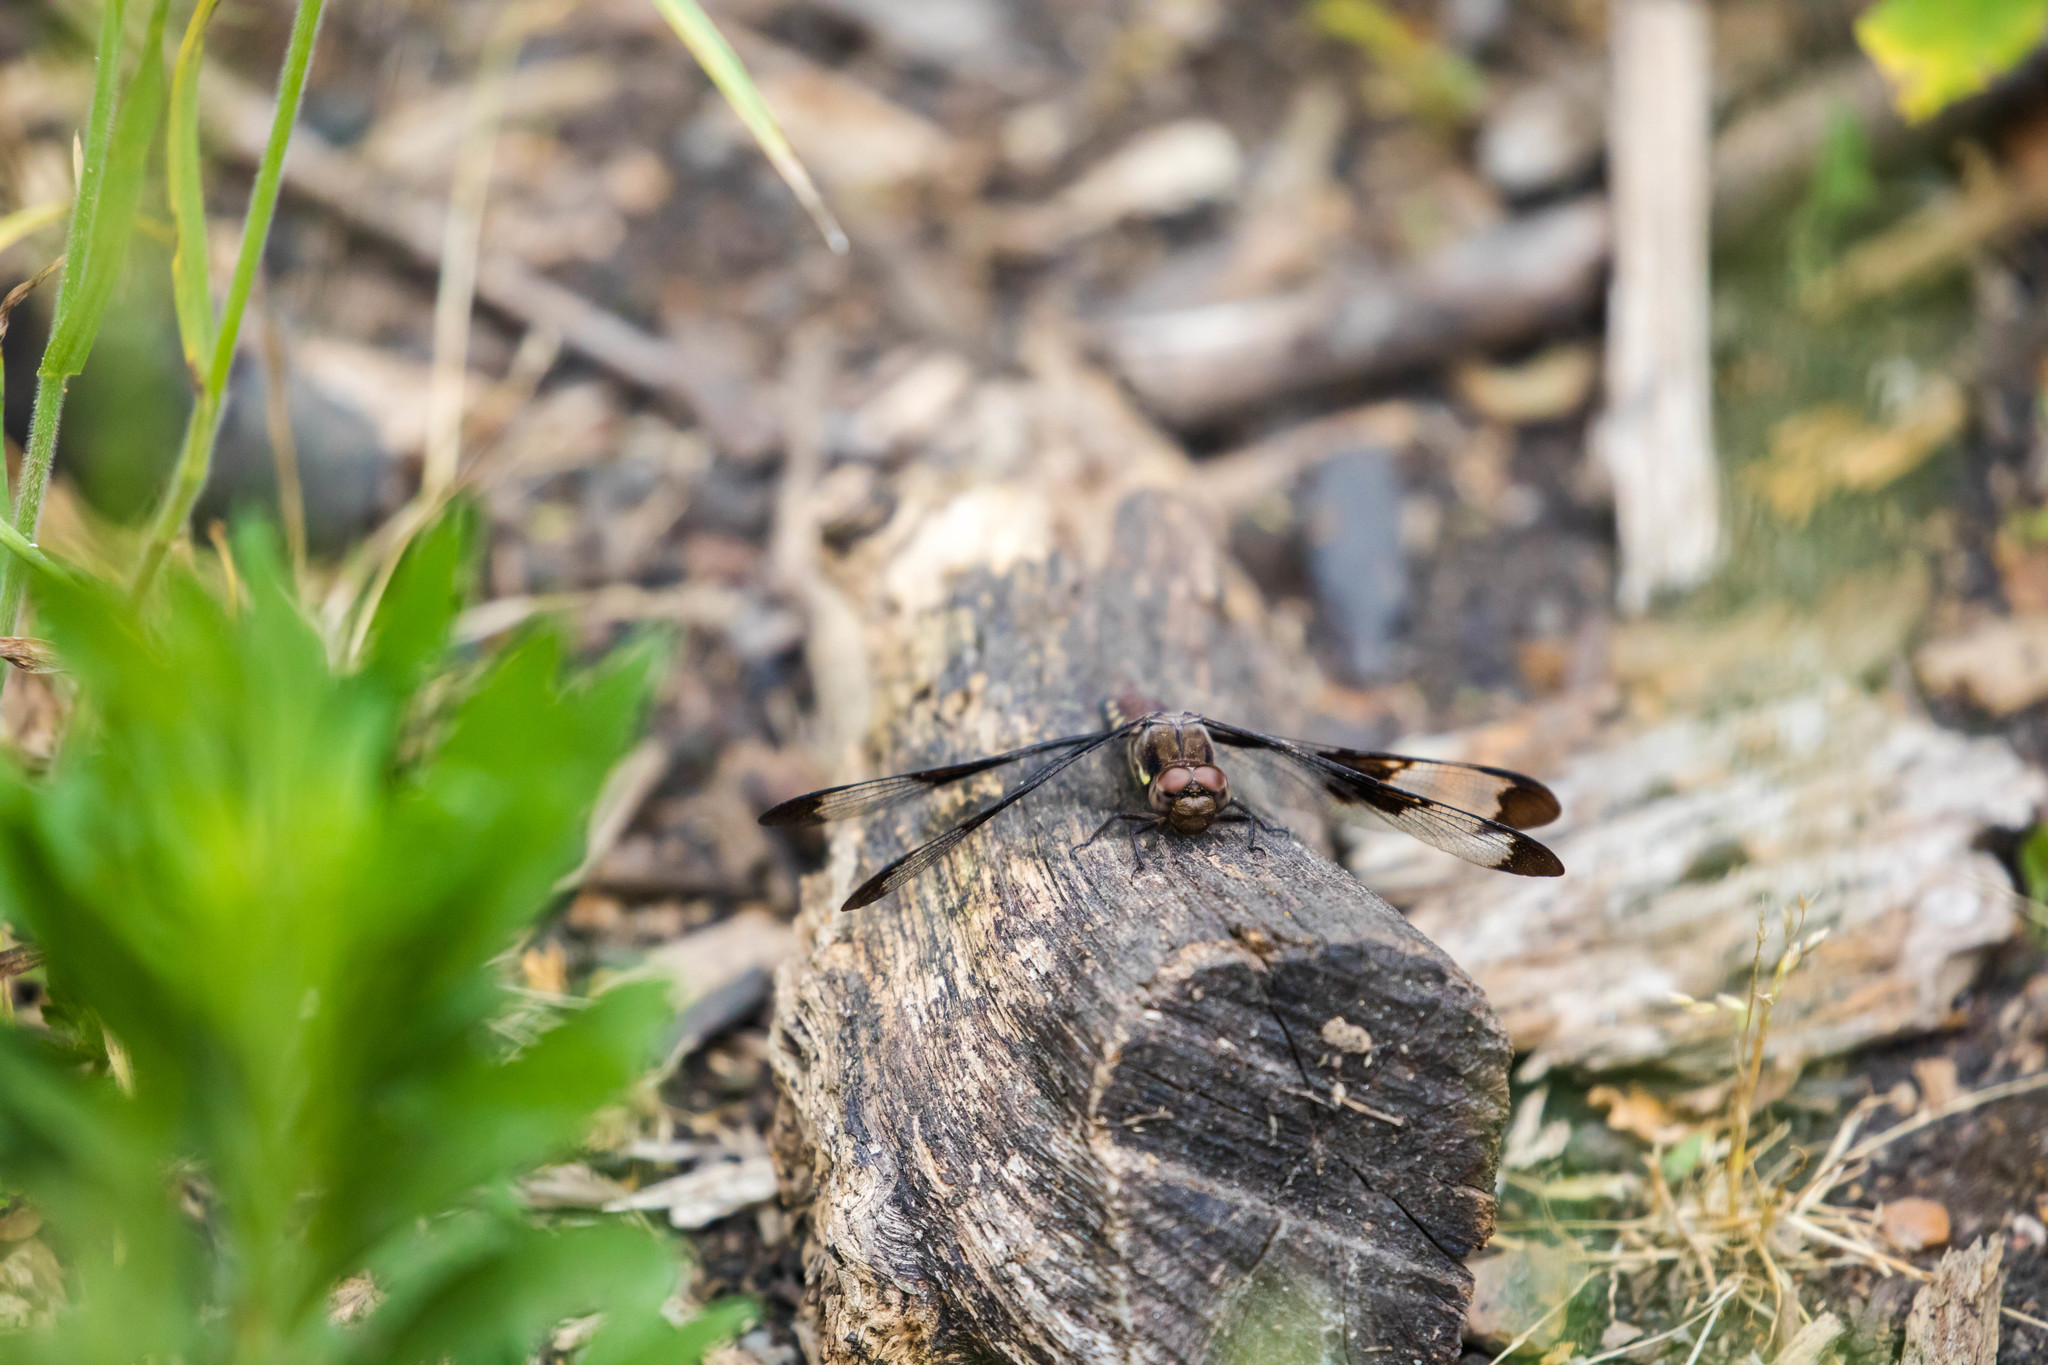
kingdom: Animalia
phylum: Arthropoda
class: Insecta
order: Odonata
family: Libellulidae
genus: Plathemis
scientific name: Plathemis lydia
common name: Common whitetail
